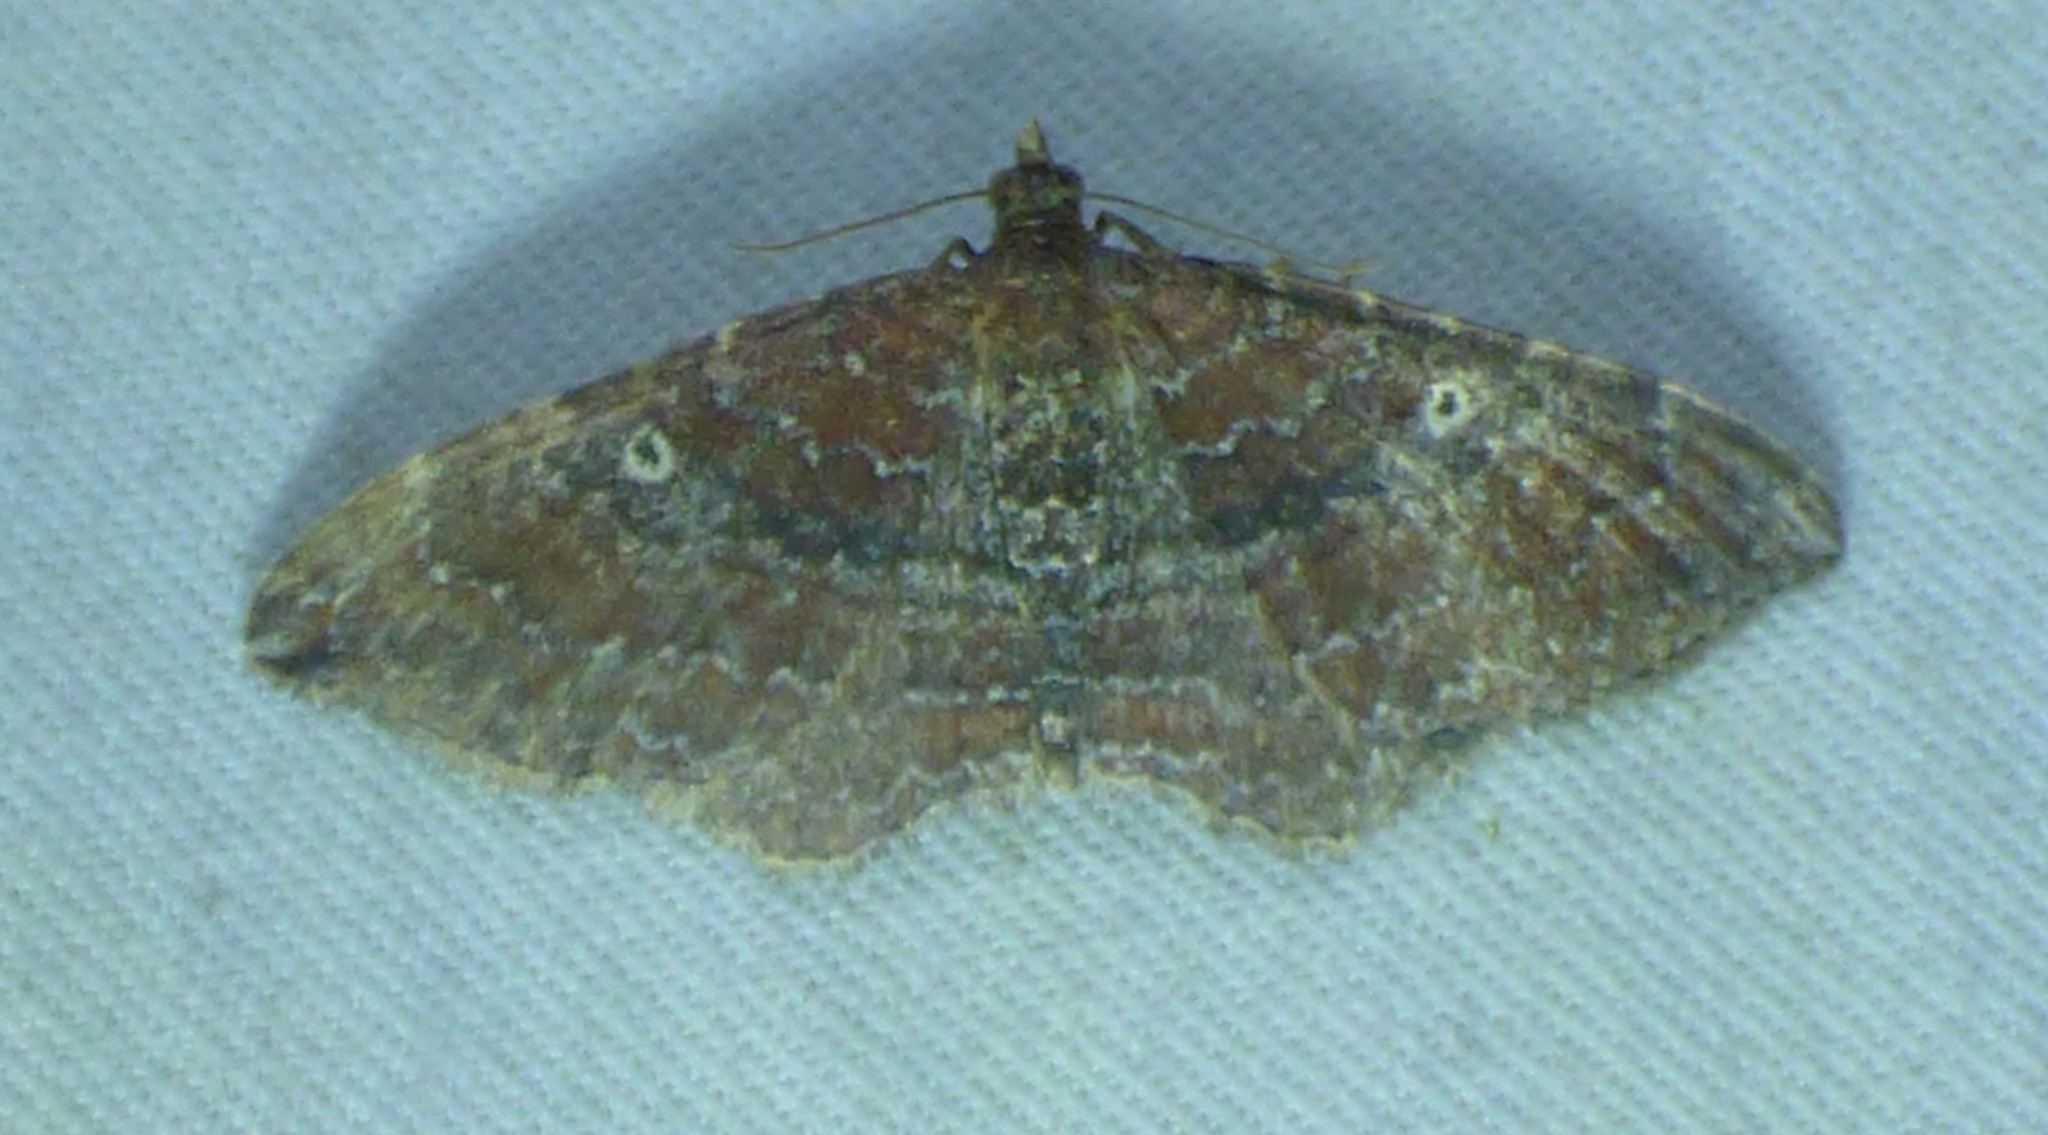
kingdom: Animalia
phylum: Arthropoda
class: Insecta
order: Lepidoptera
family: Geometridae
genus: Orthonama
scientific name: Orthonama obstipata
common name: The gem
